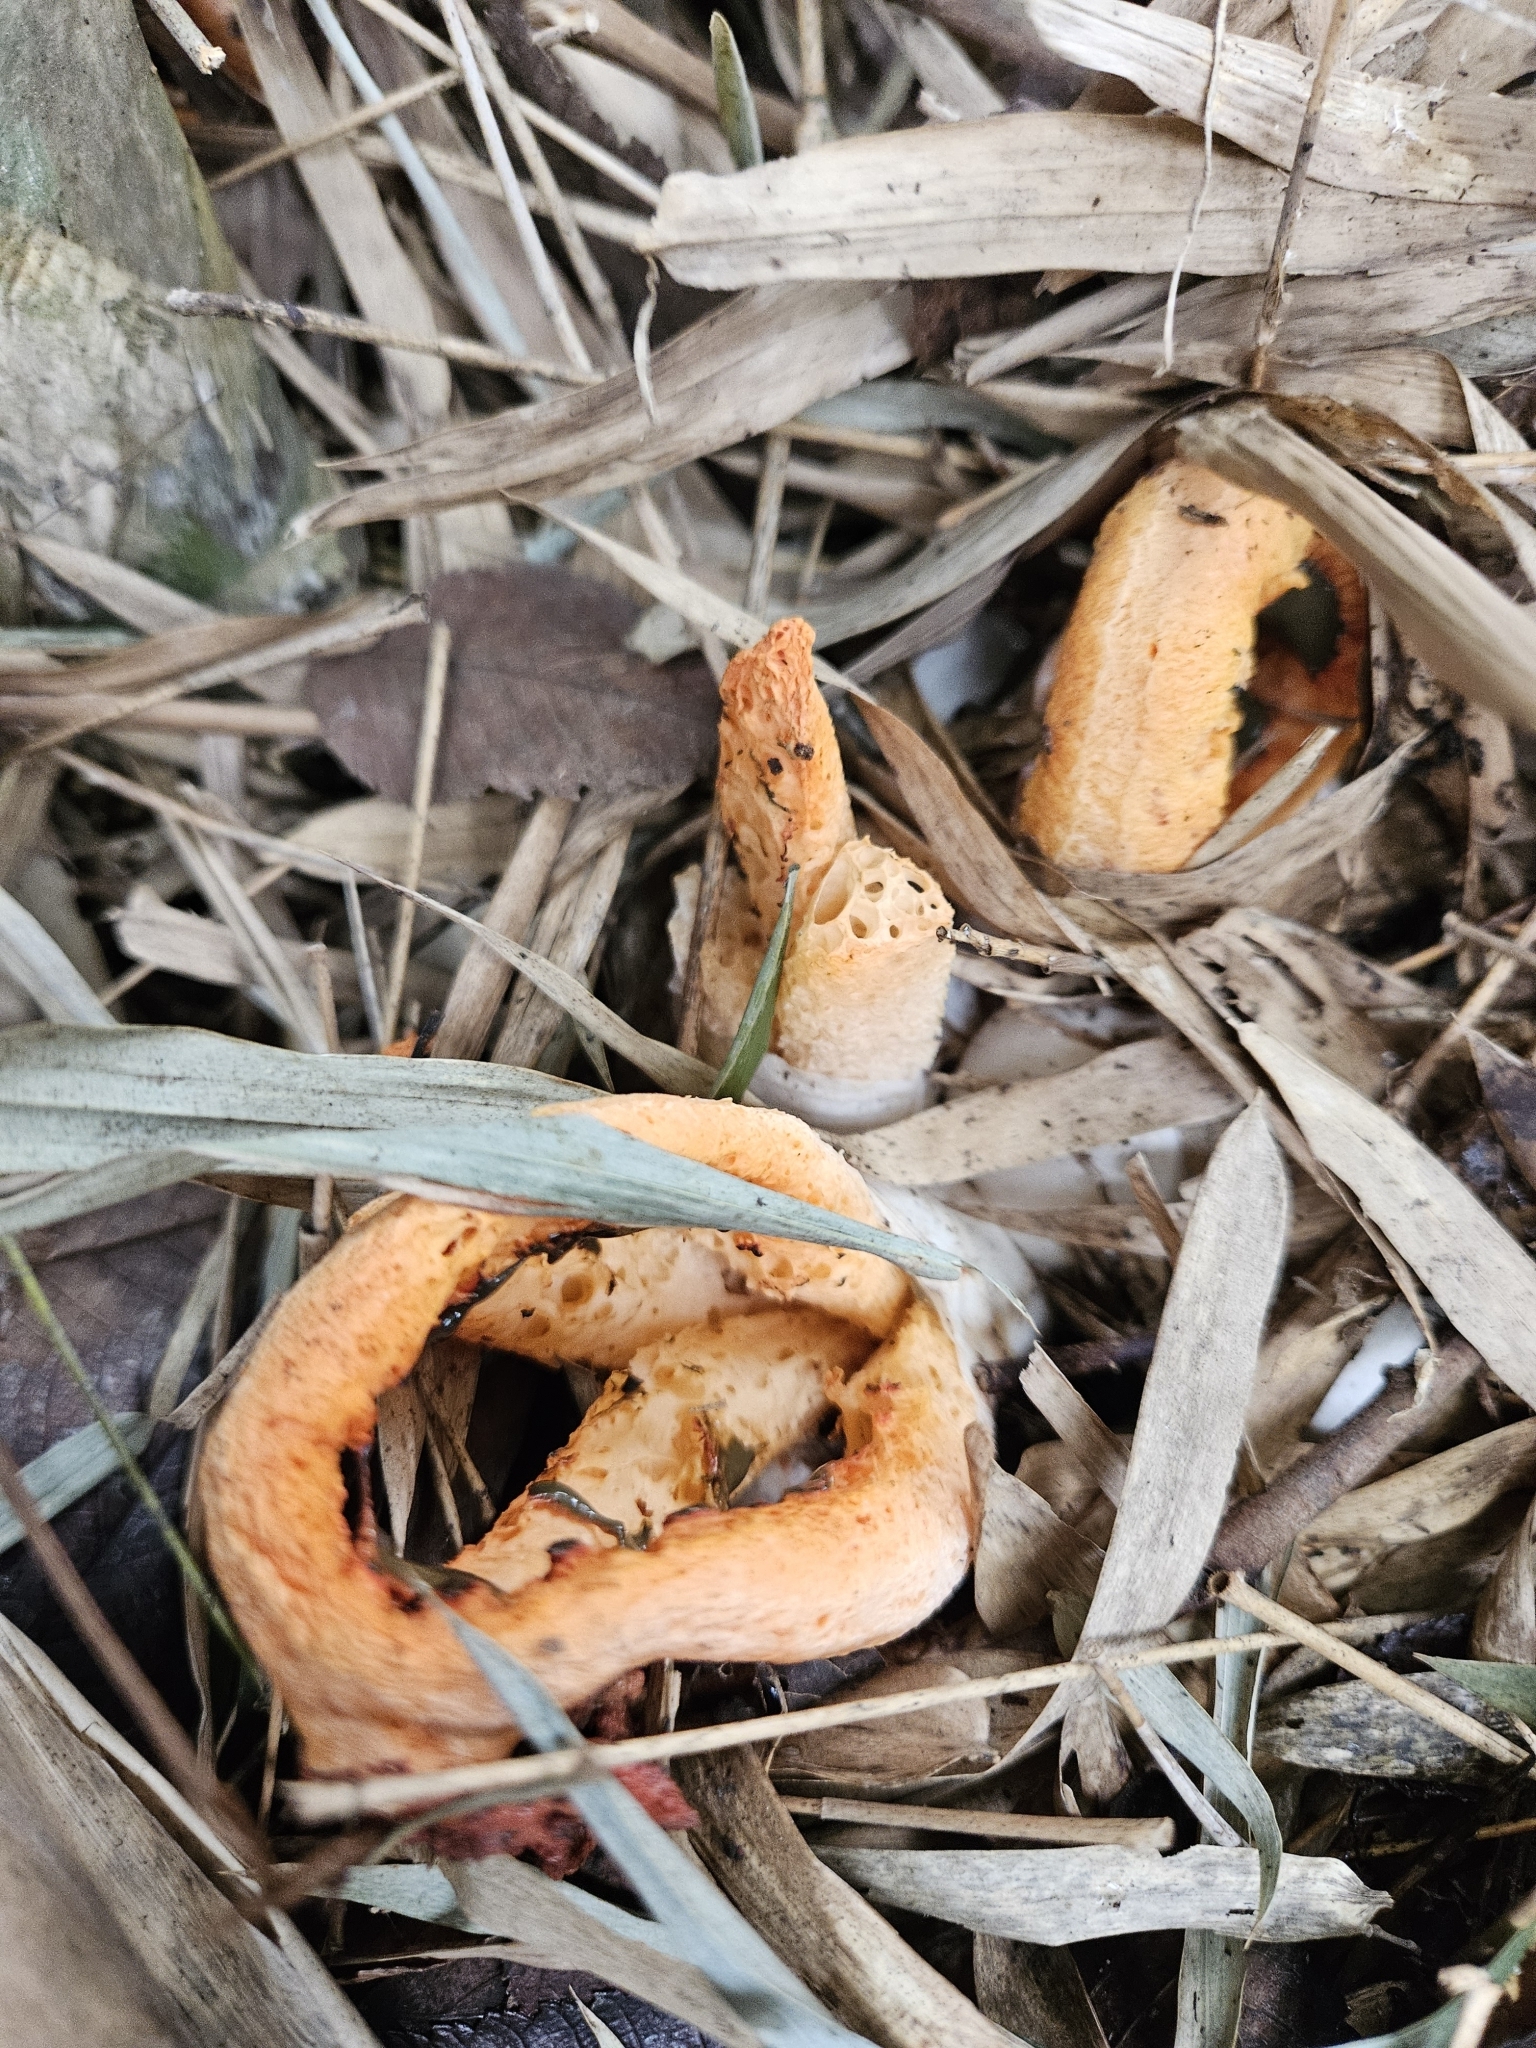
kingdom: Fungi
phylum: Basidiomycota
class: Agaricomycetes
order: Phallales
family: Phallaceae
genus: Clathrus
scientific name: Clathrus columnatus
